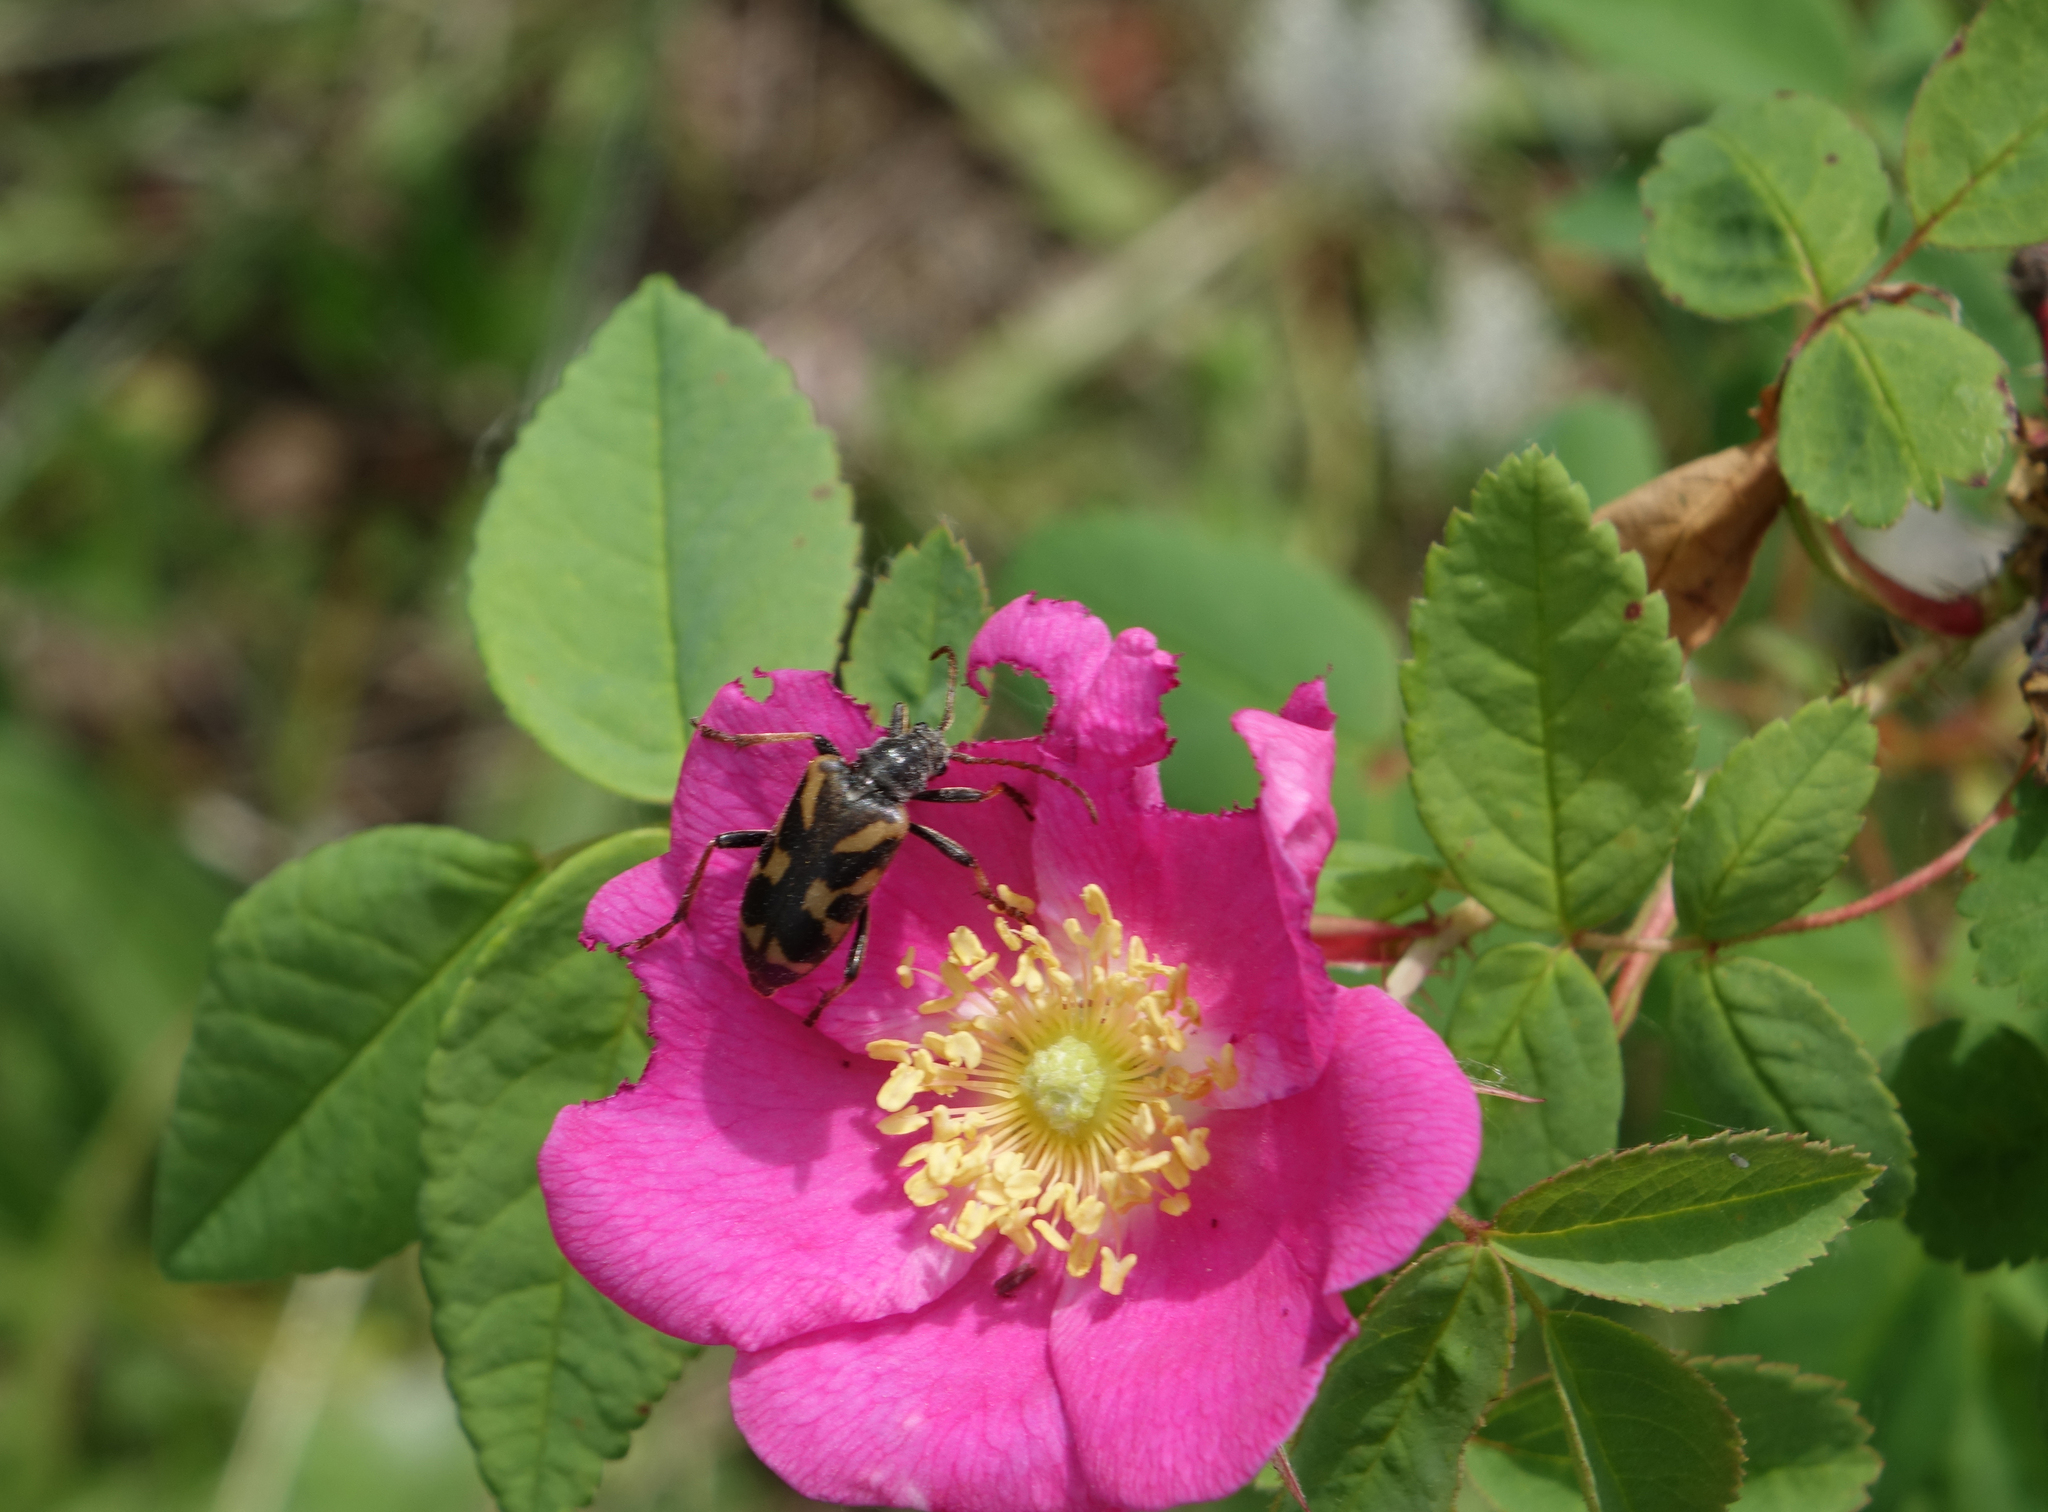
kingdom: Plantae
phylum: Tracheophyta
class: Magnoliopsida
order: Rosales
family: Rosaceae
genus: Rosa
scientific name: Rosa acicularis
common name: Prickly rose
